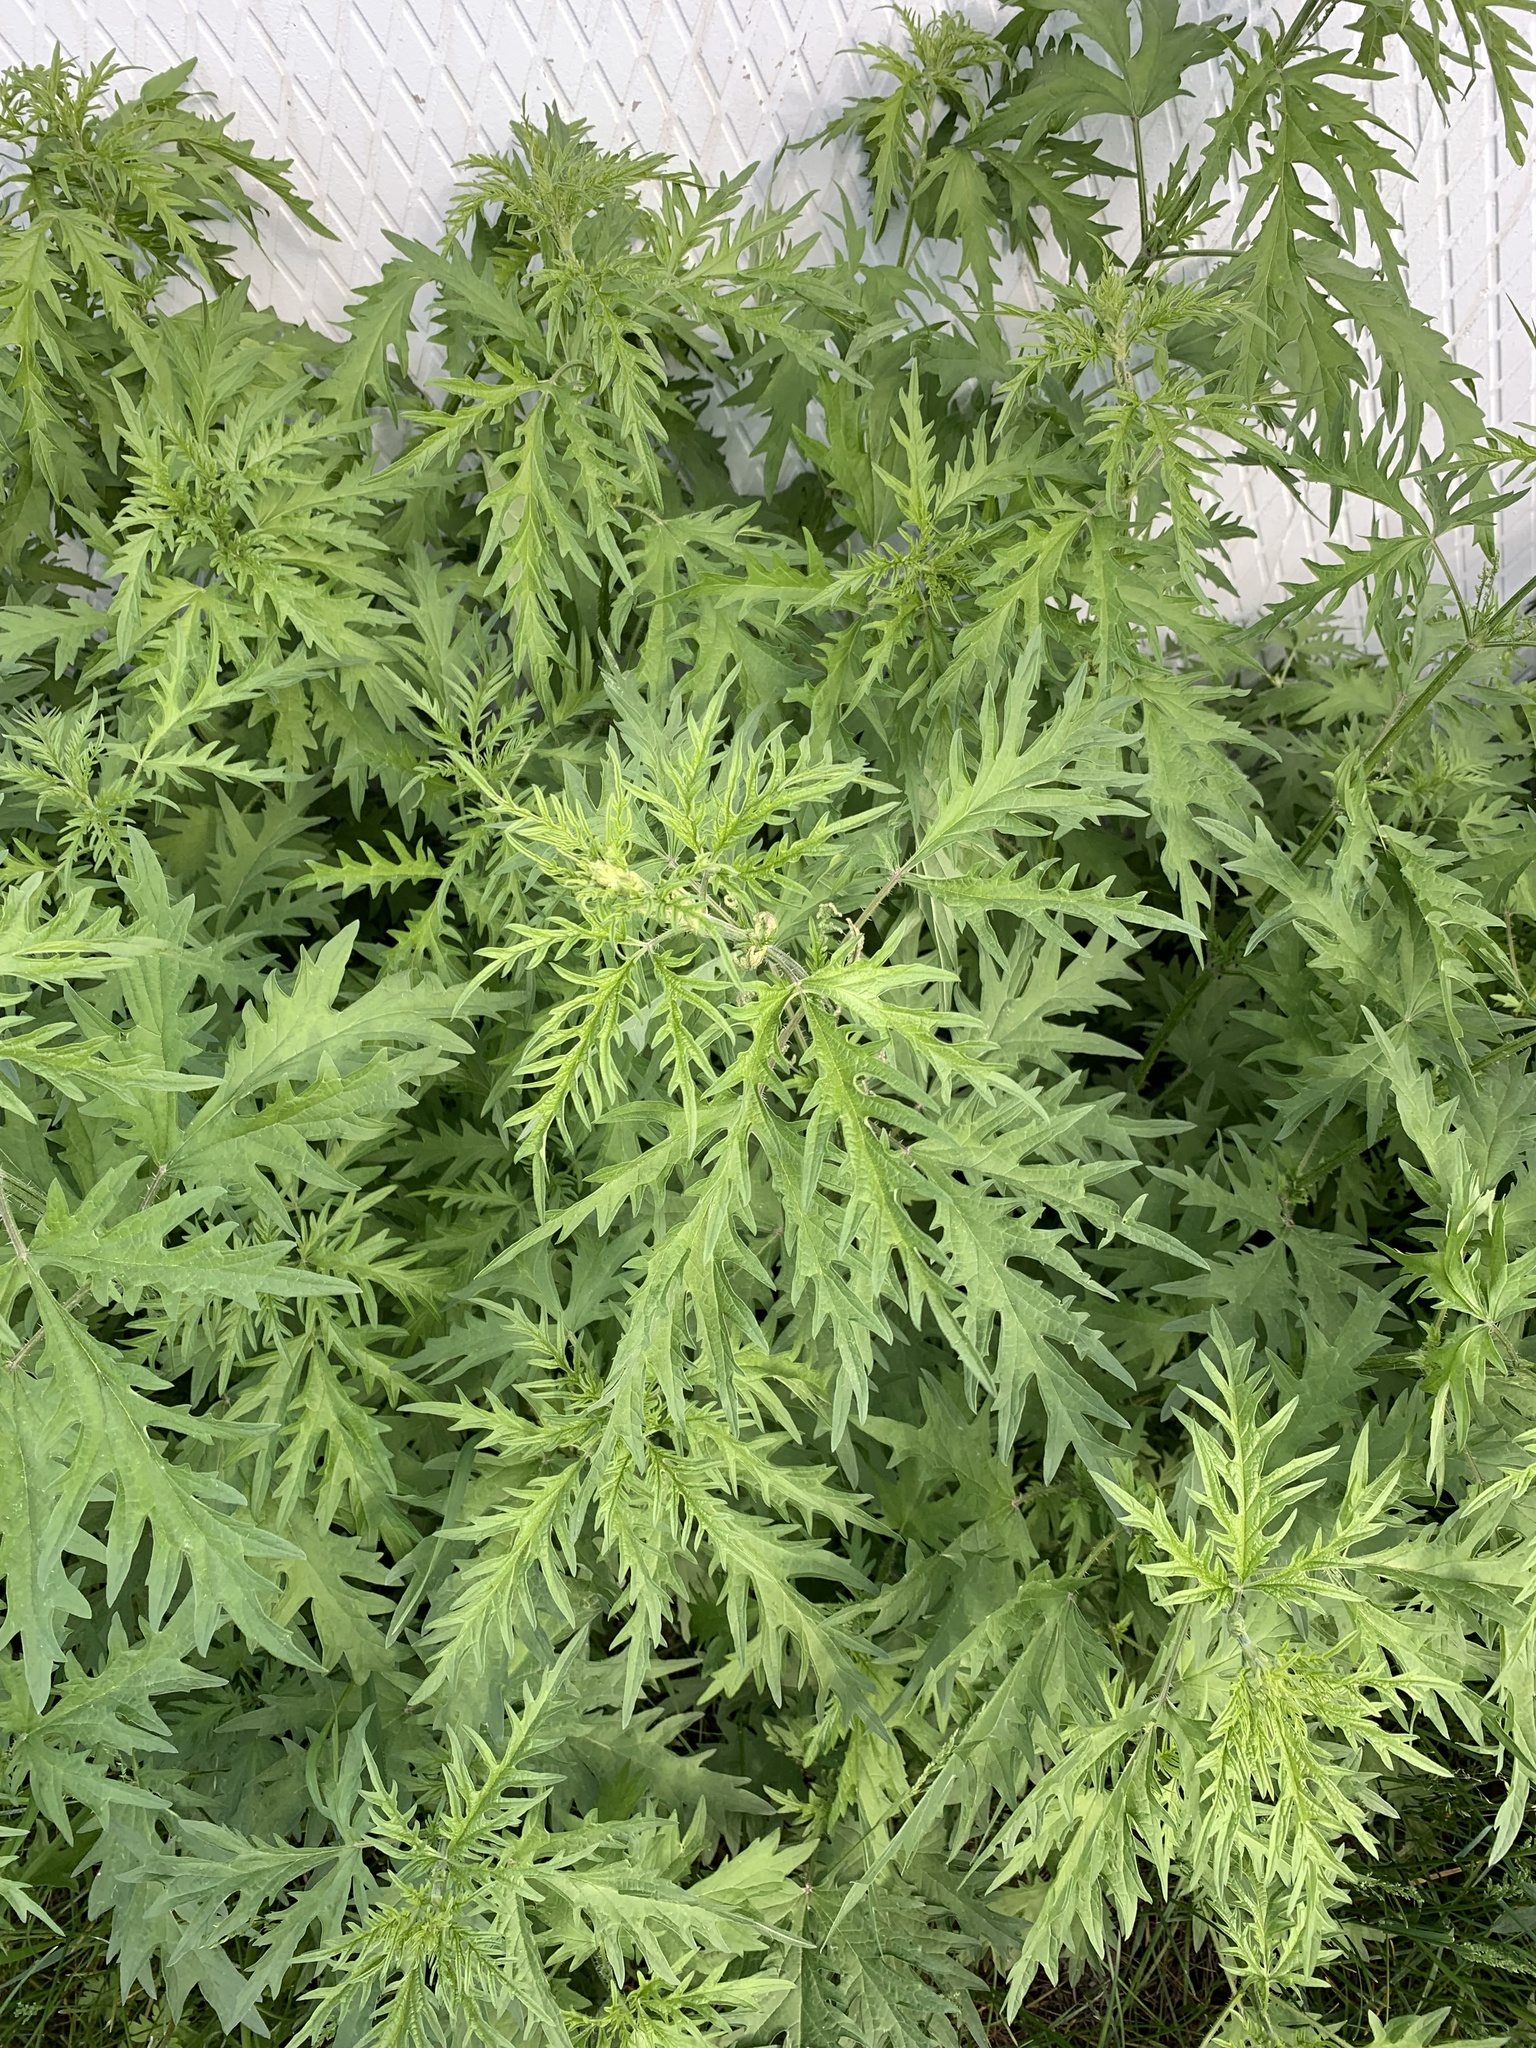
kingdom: Plantae
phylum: Tracheophyta
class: Magnoliopsida
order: Rosales
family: Urticaceae
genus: Urtica
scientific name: Urtica cannabina
